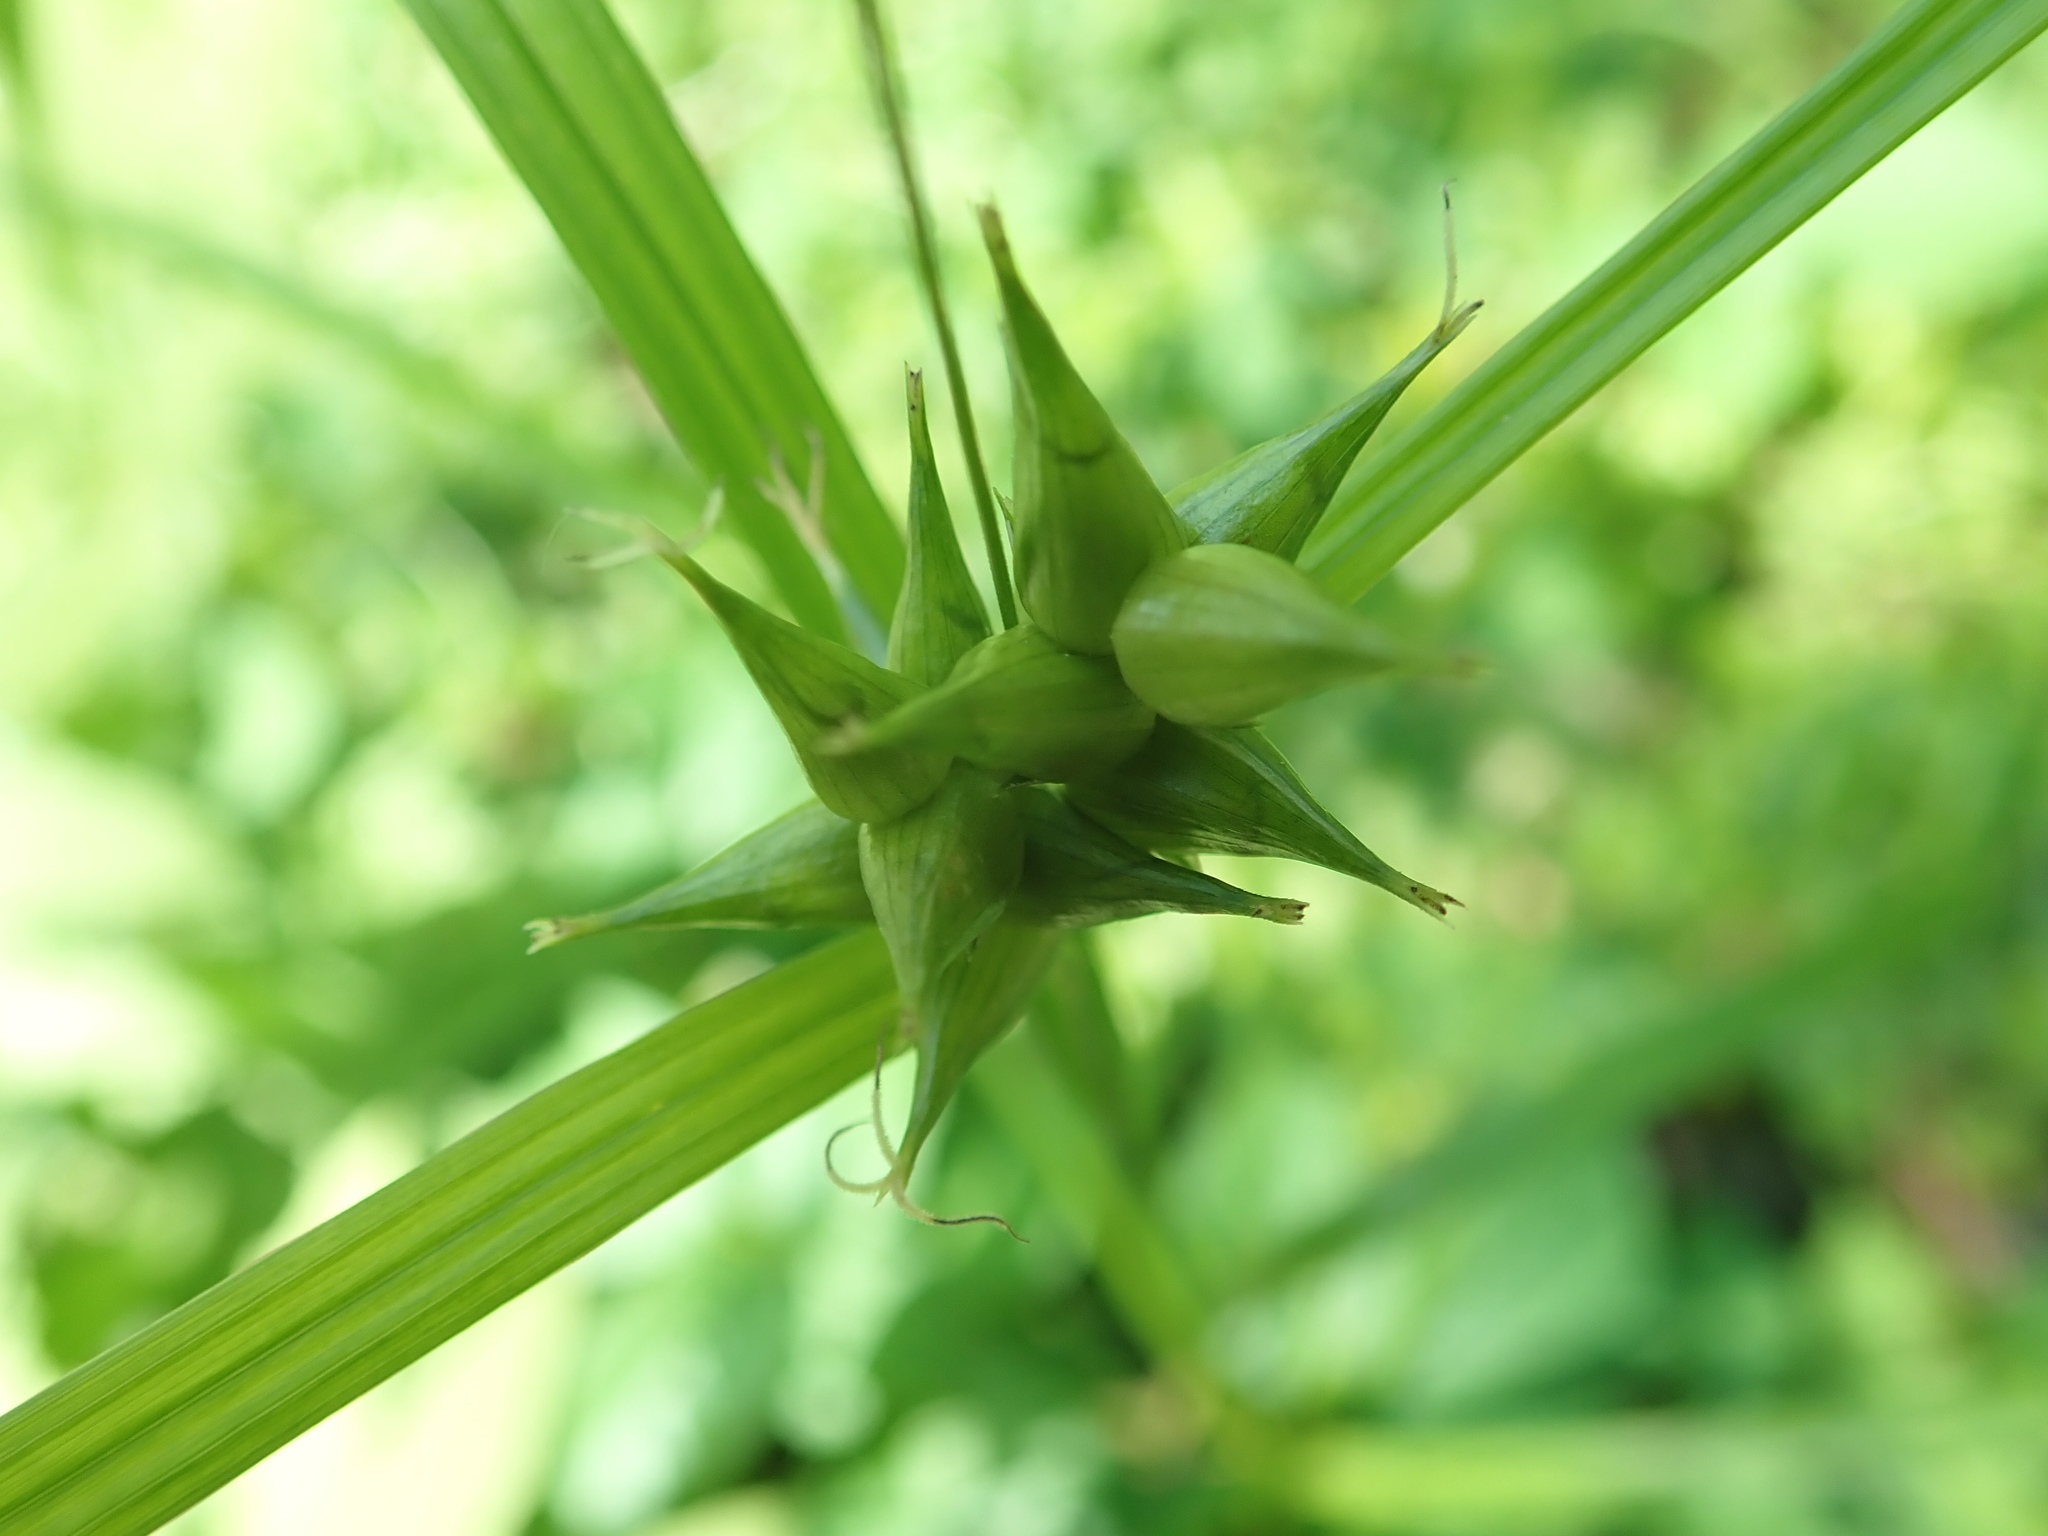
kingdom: Plantae
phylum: Tracheophyta
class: Liliopsida
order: Poales
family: Cyperaceae
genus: Carex
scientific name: Carex intumescens
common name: Greater bladder sedge
